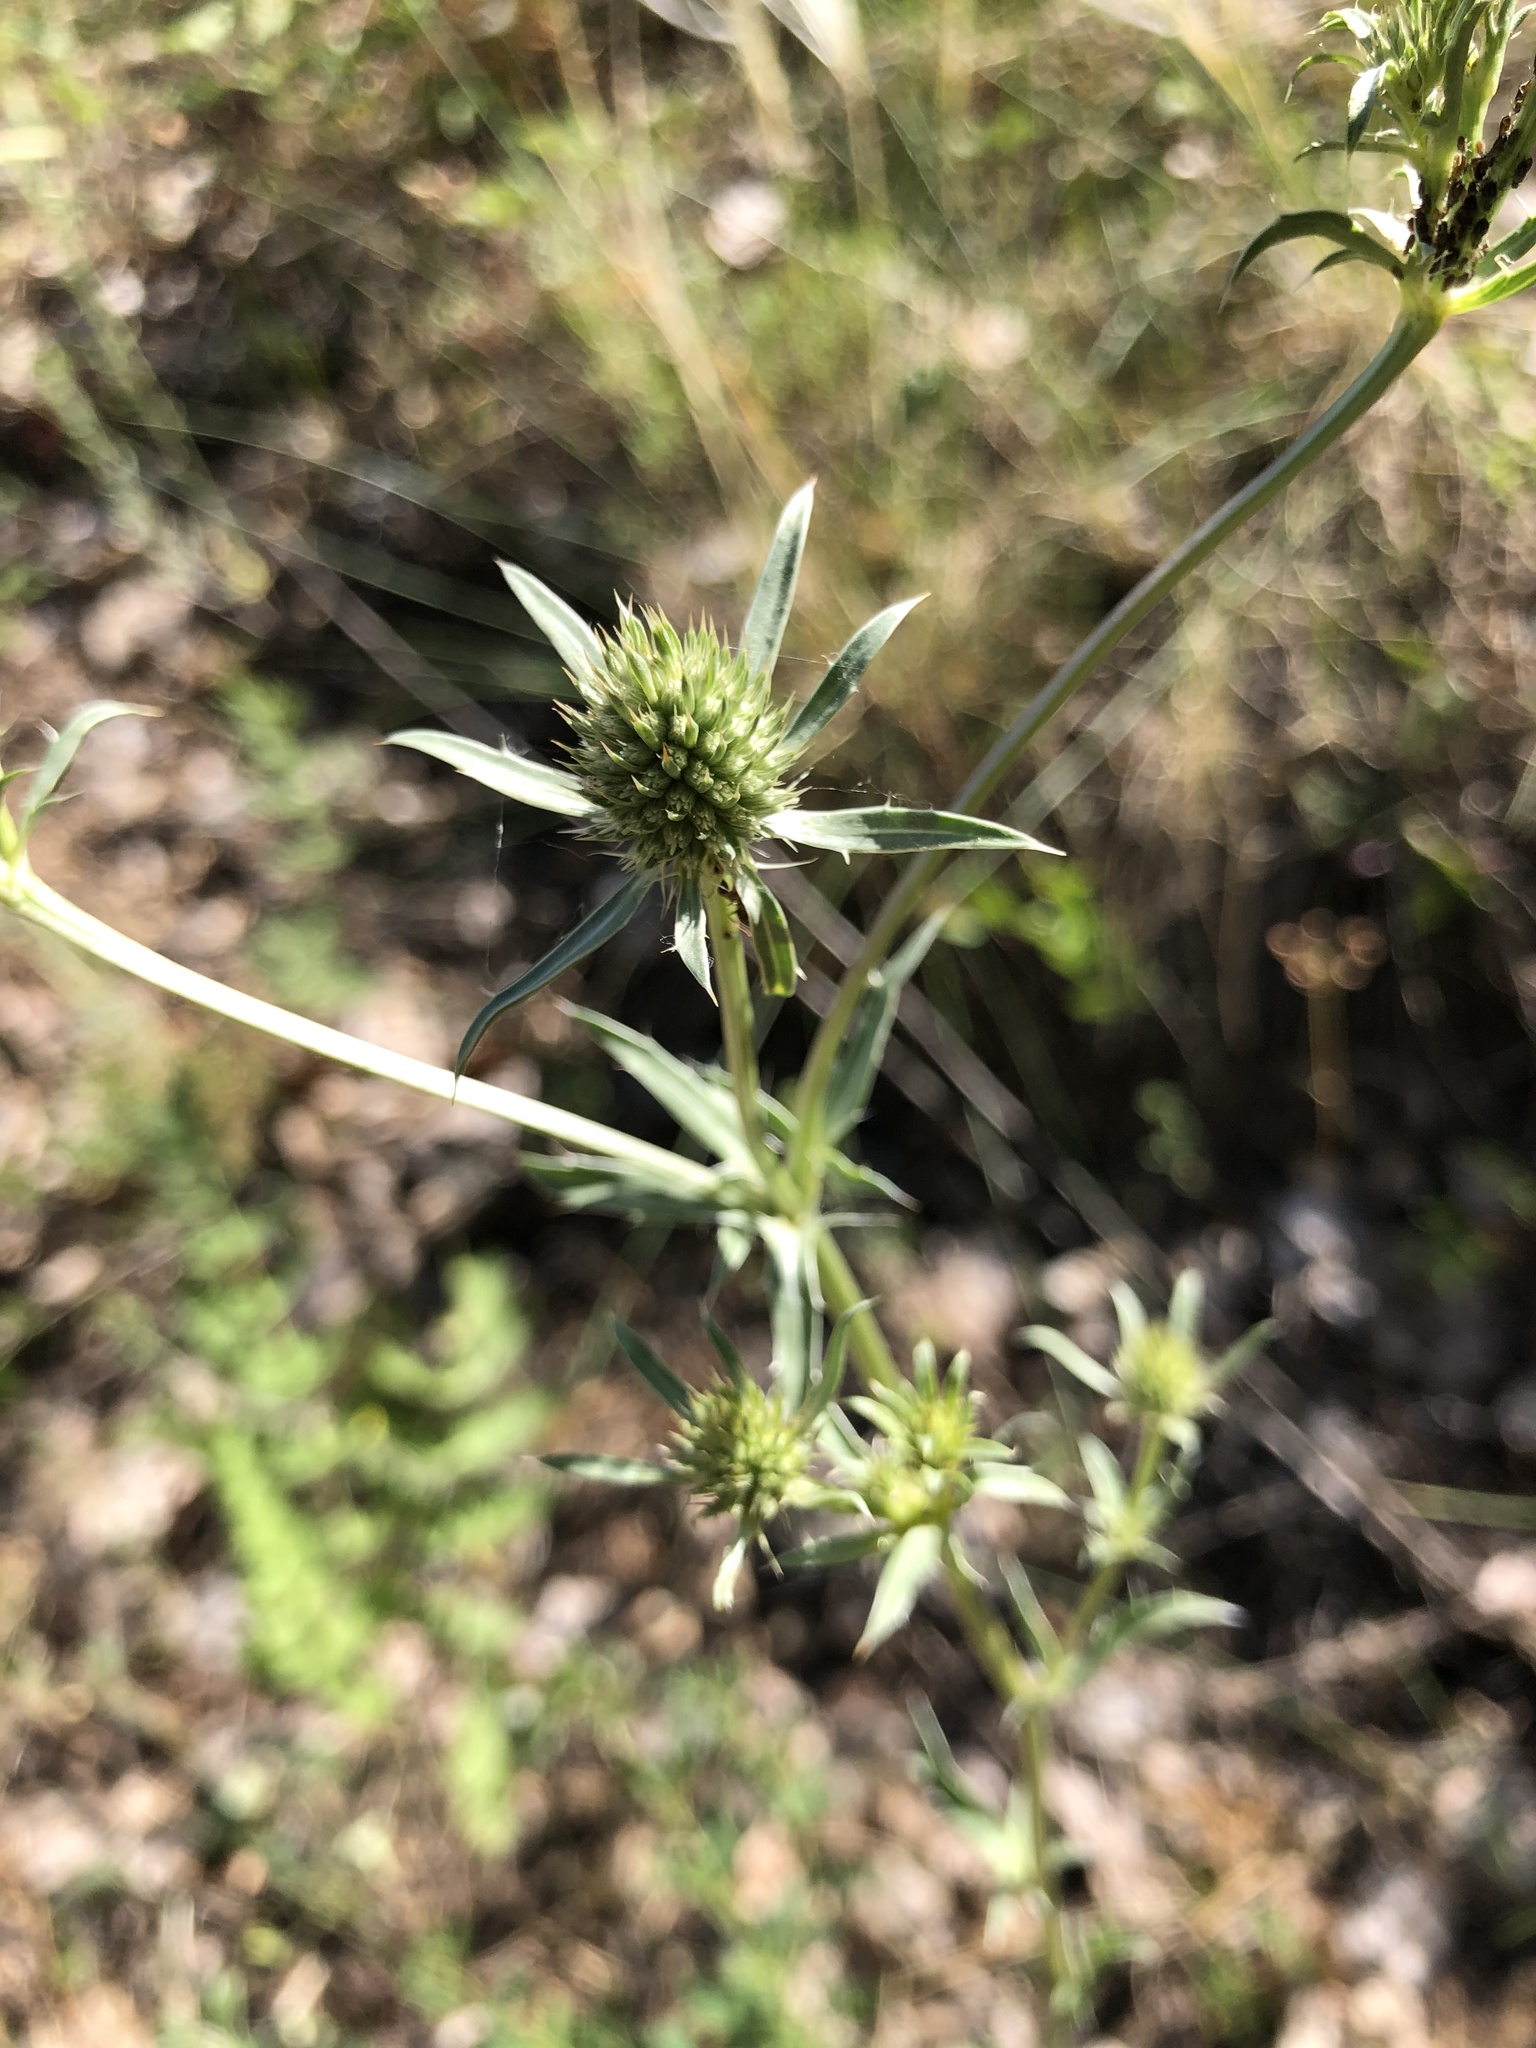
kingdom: Plantae
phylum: Tracheophyta
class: Magnoliopsida
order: Apiales
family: Apiaceae
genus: Eryngium
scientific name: Eryngium planum
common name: Blue eryngo
